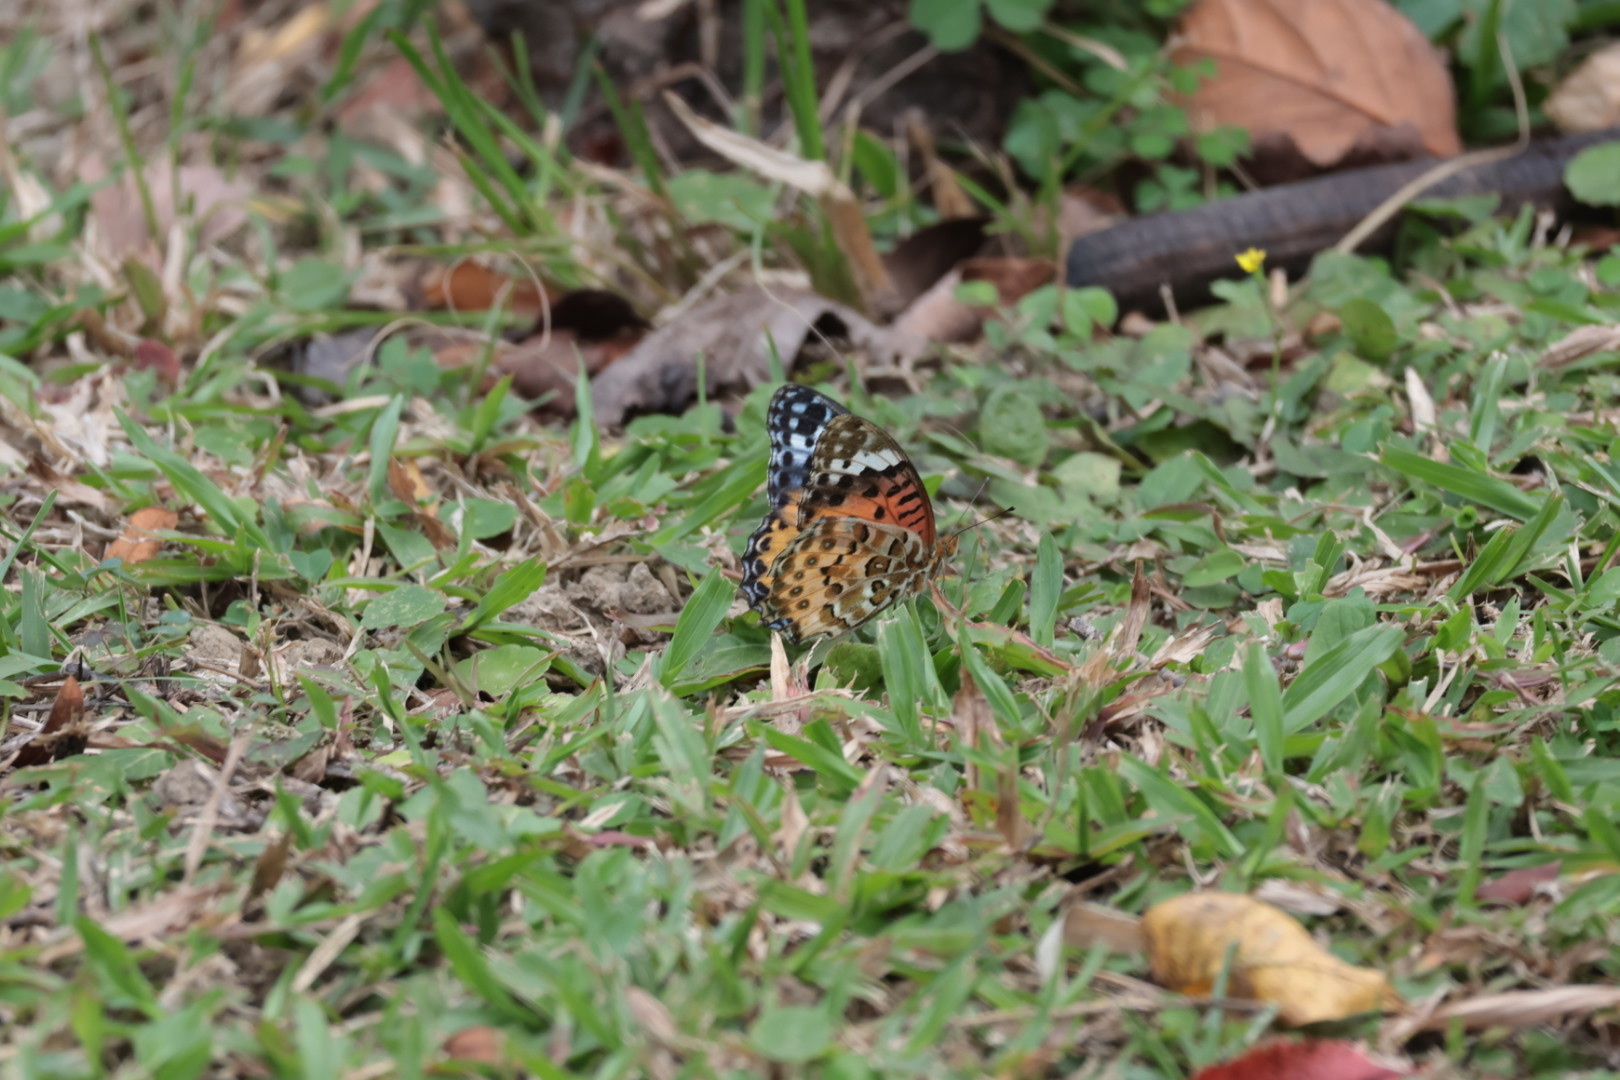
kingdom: Animalia
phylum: Arthropoda
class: Insecta
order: Lepidoptera
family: Nymphalidae
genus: Argynnis
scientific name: Argynnis hyperbius
